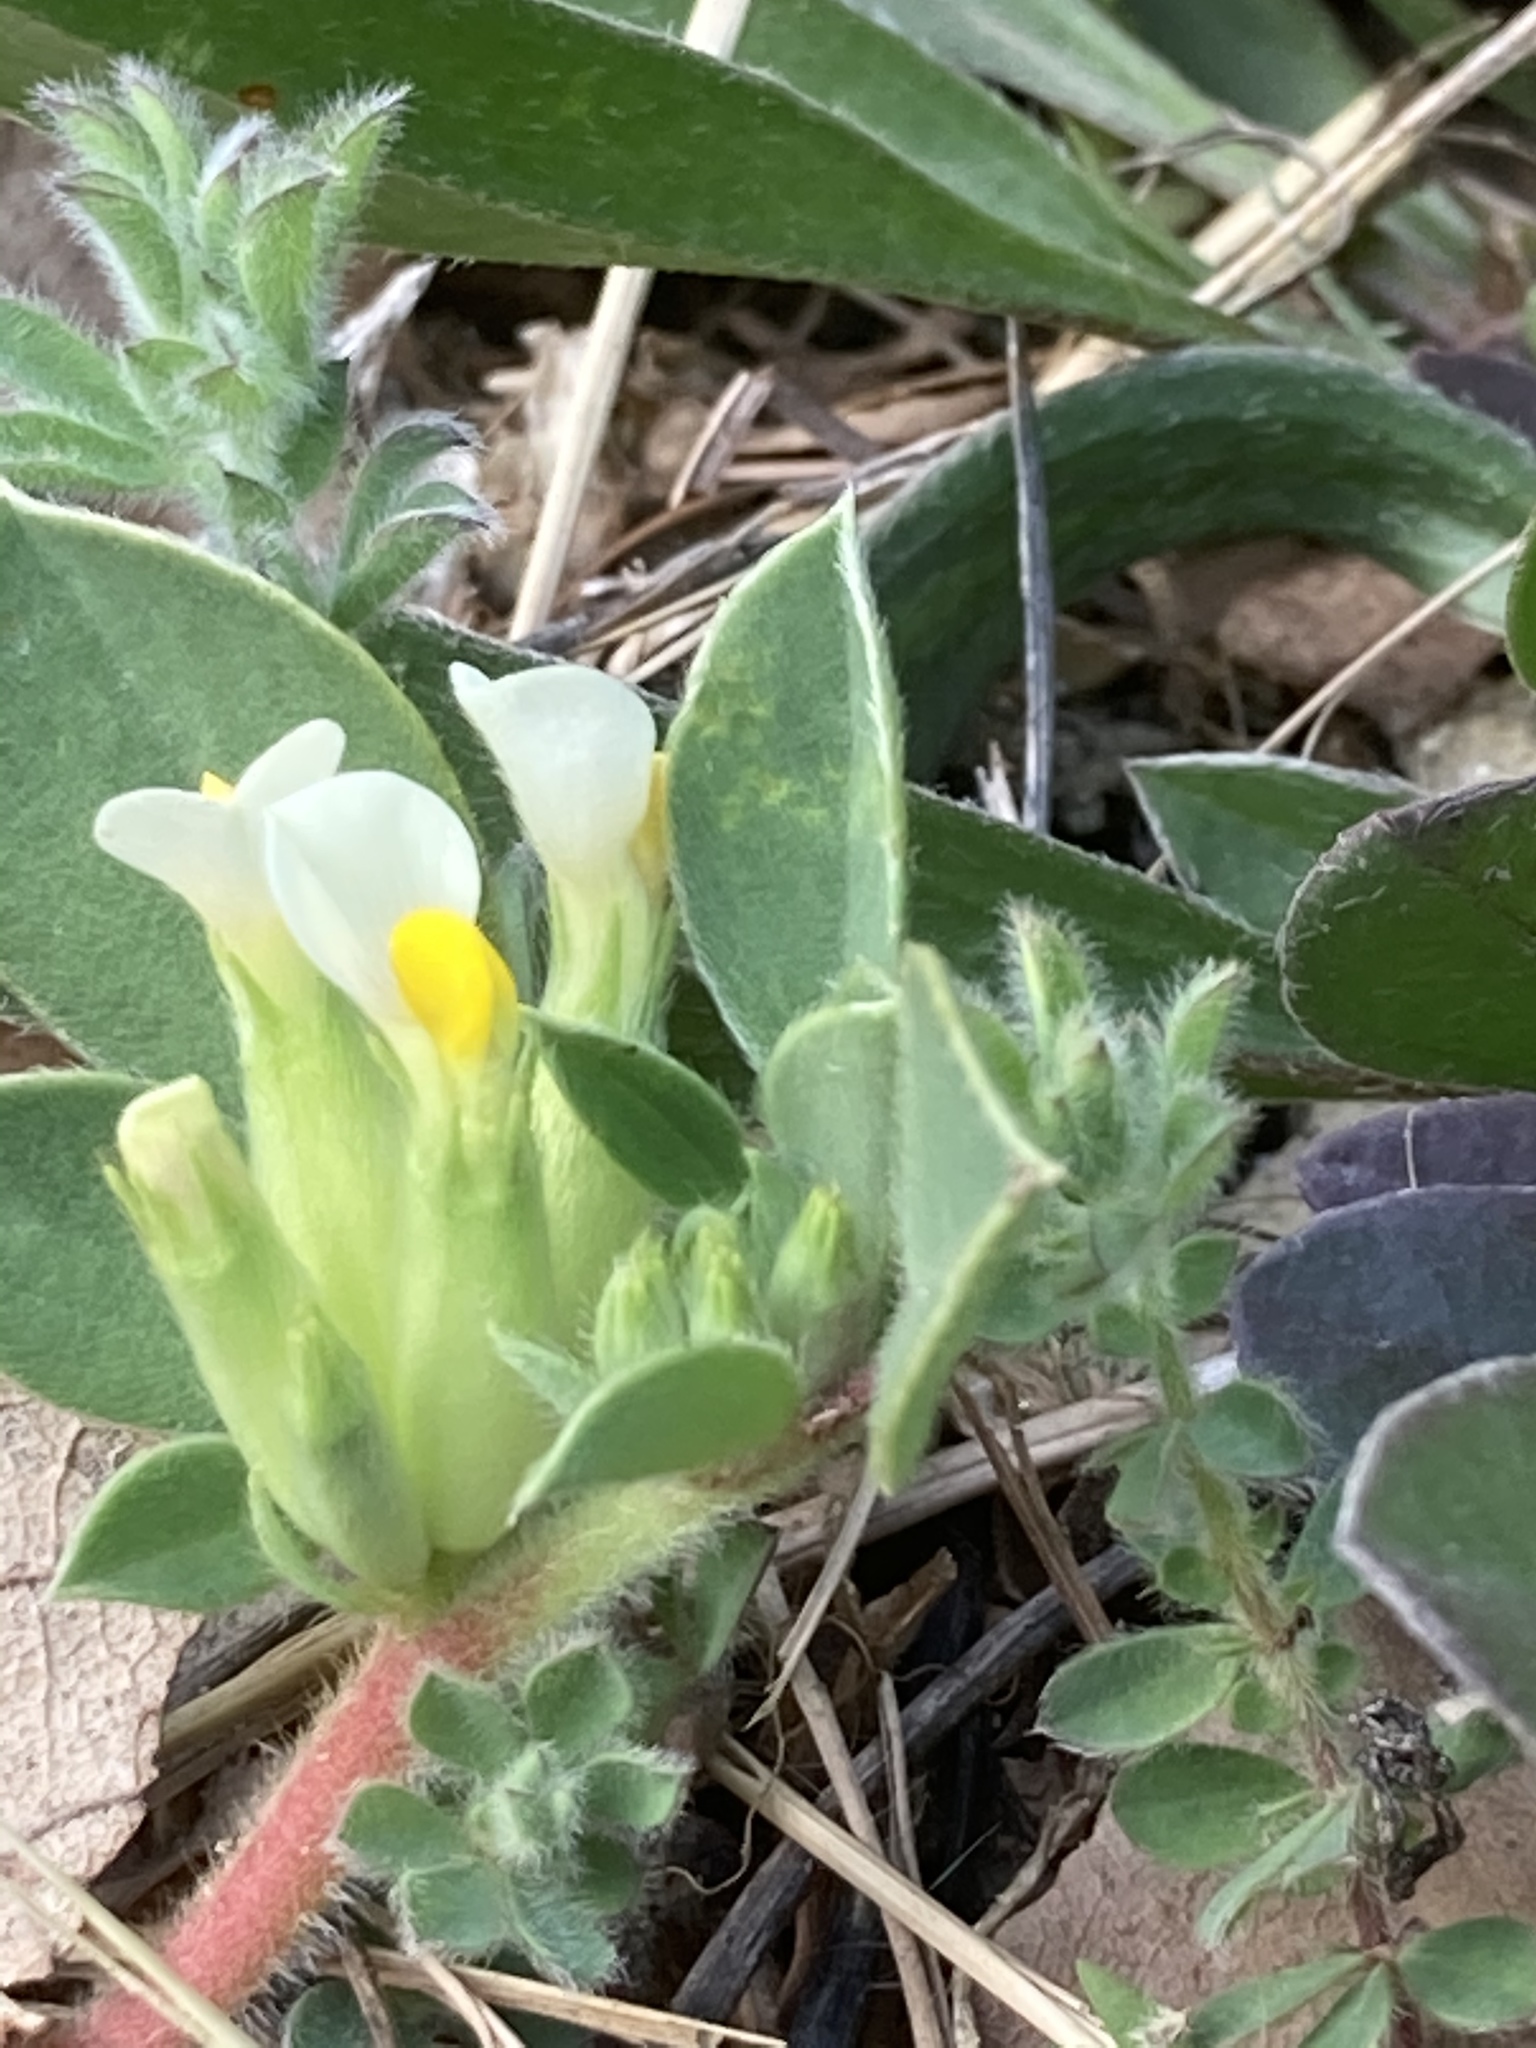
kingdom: Plantae
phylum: Tracheophyta
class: Magnoliopsida
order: Fabales
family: Fabaceae
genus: Tripodion
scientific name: Tripodion tetraphyllum
